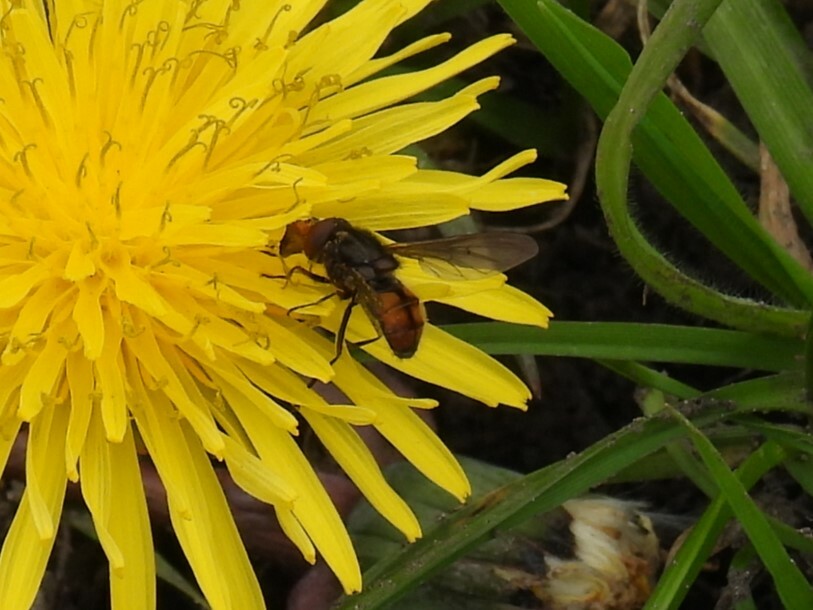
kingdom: Animalia
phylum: Arthropoda
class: Insecta
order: Diptera
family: Syrphidae
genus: Rhingia
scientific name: Rhingia campestris
